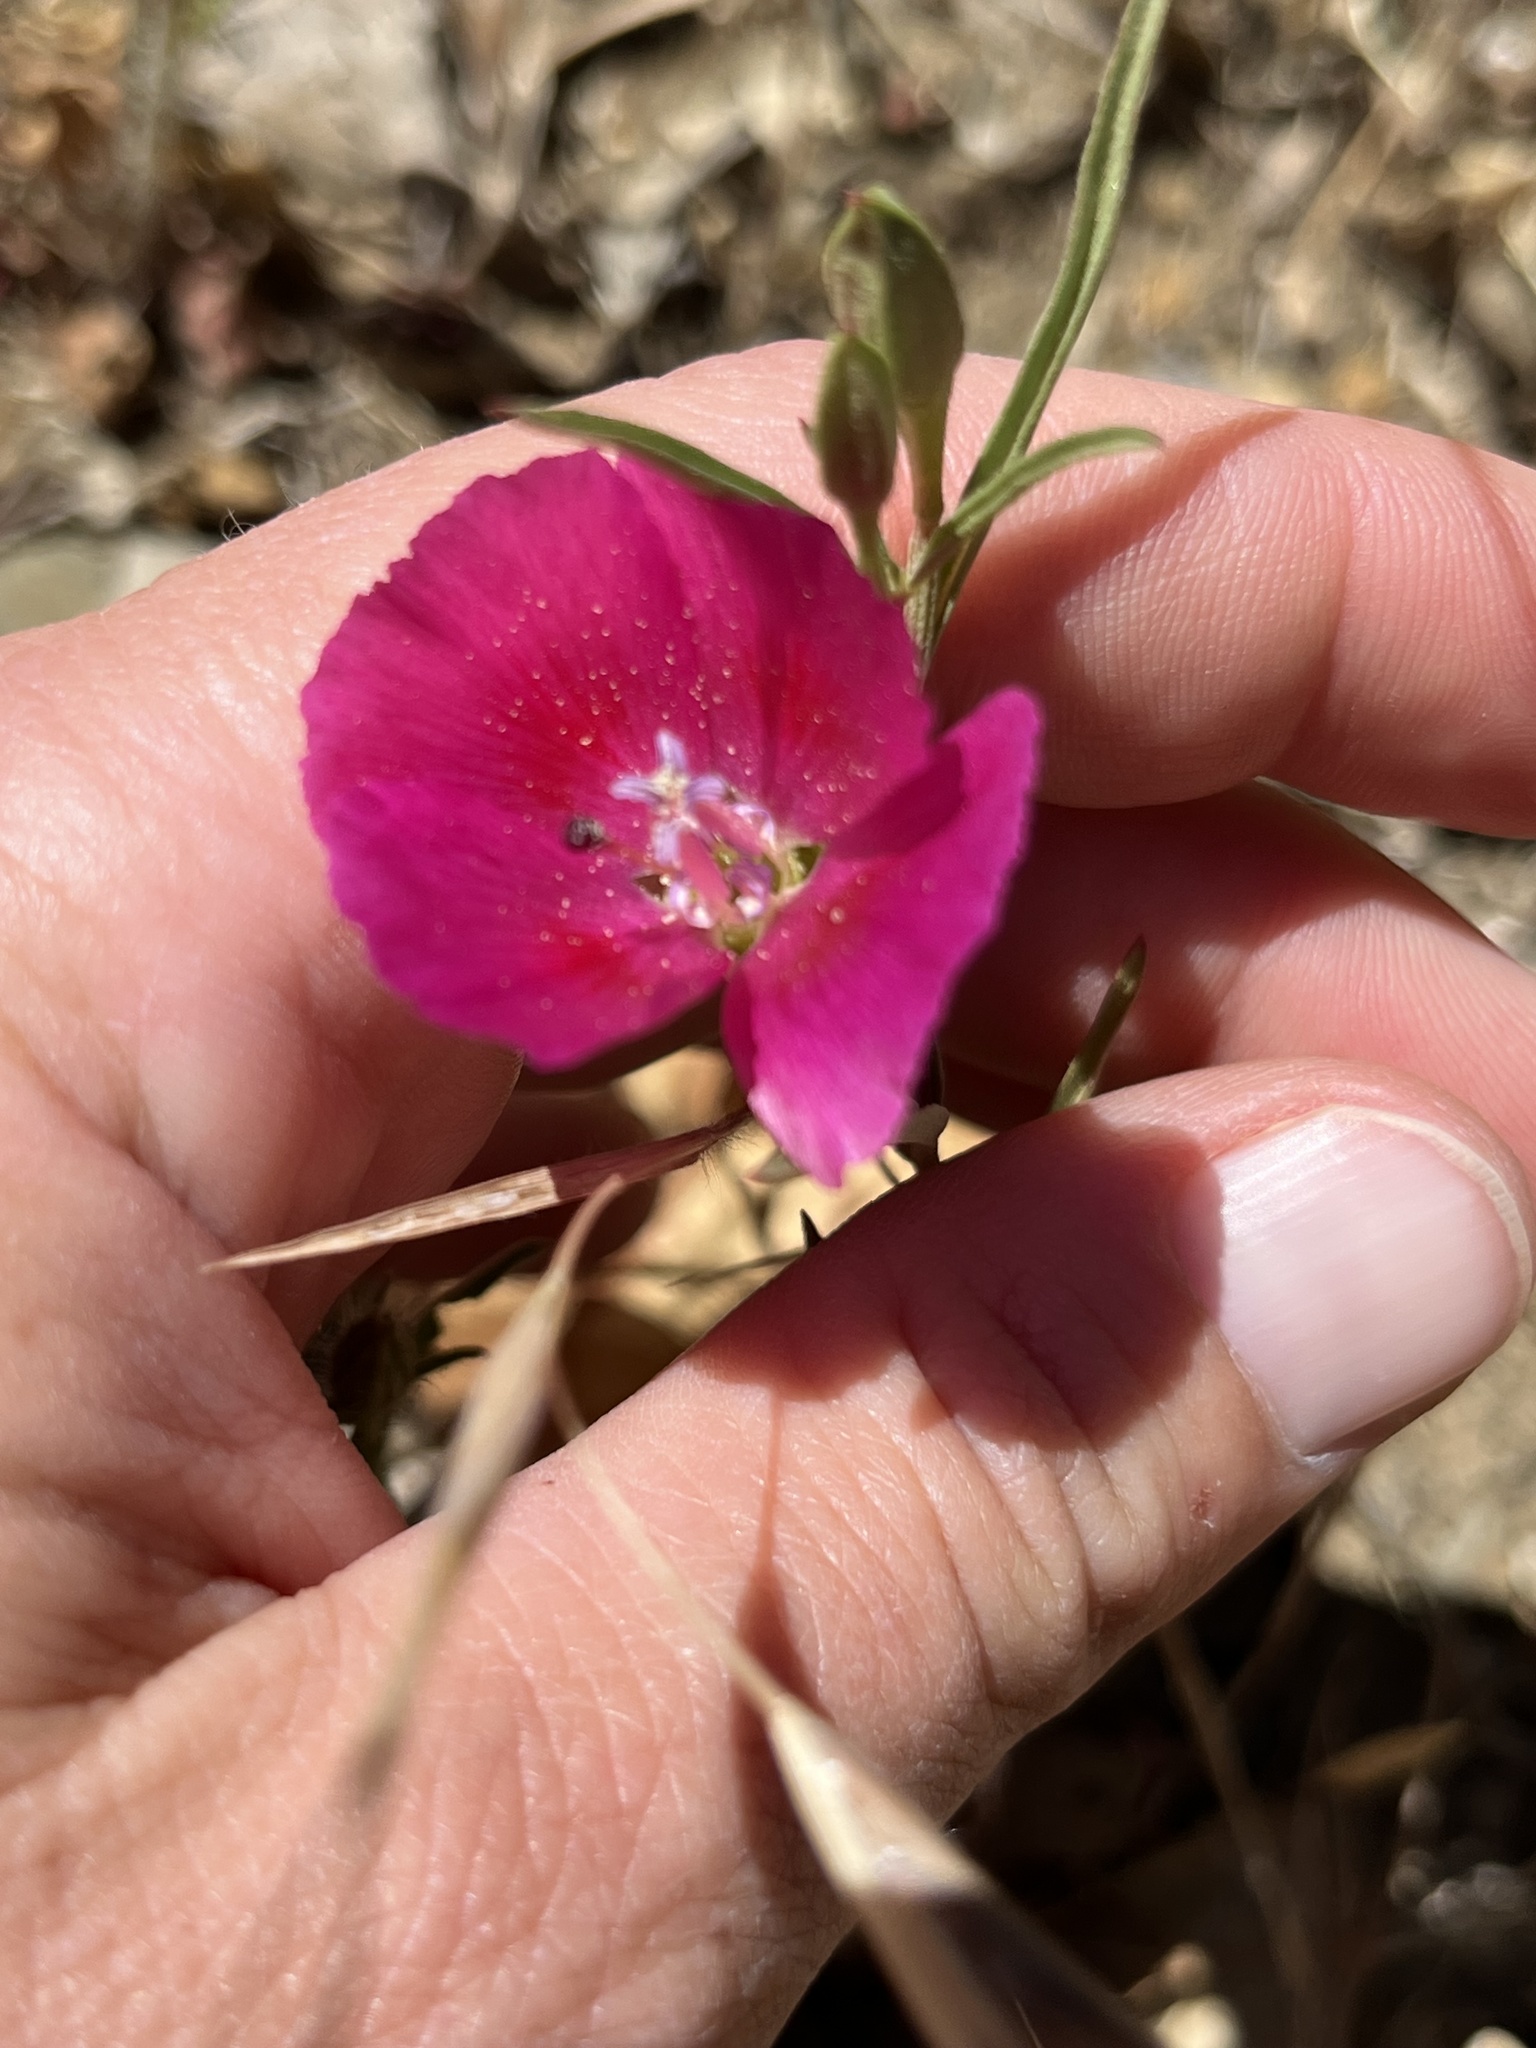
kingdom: Plantae
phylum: Tracheophyta
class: Magnoliopsida
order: Myrtales
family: Onagraceae
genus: Clarkia
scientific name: Clarkia speciosa
